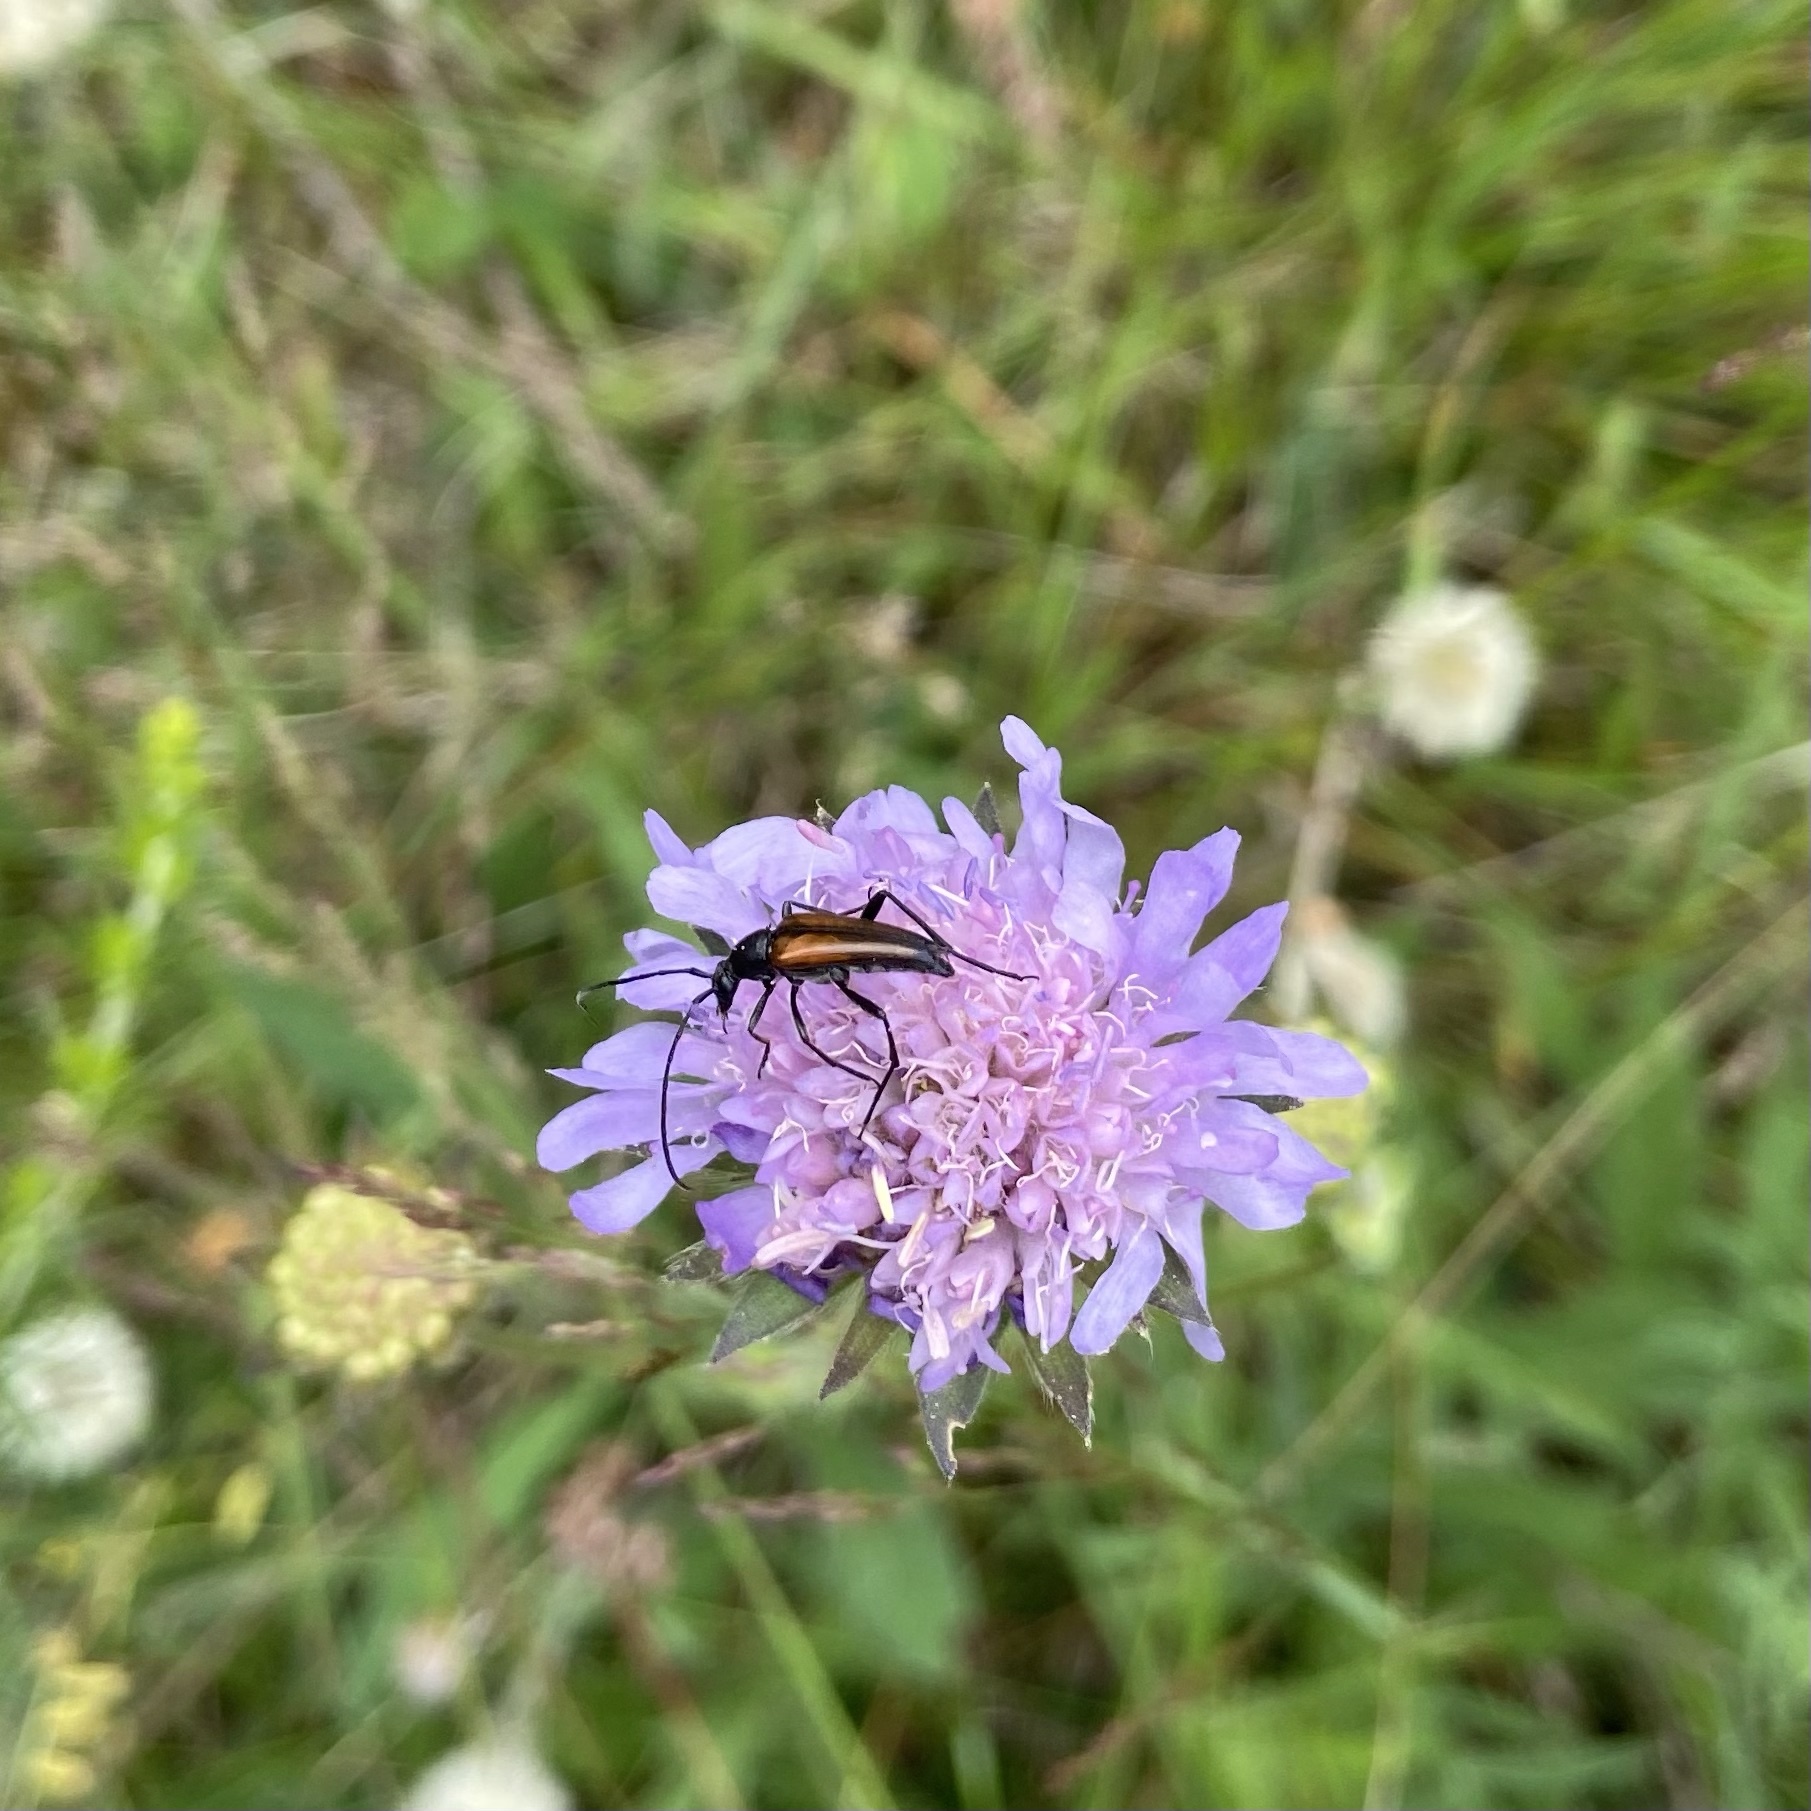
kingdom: Animalia
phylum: Arthropoda
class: Insecta
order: Coleoptera
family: Cerambycidae
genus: Stenurella
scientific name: Stenurella melanura
